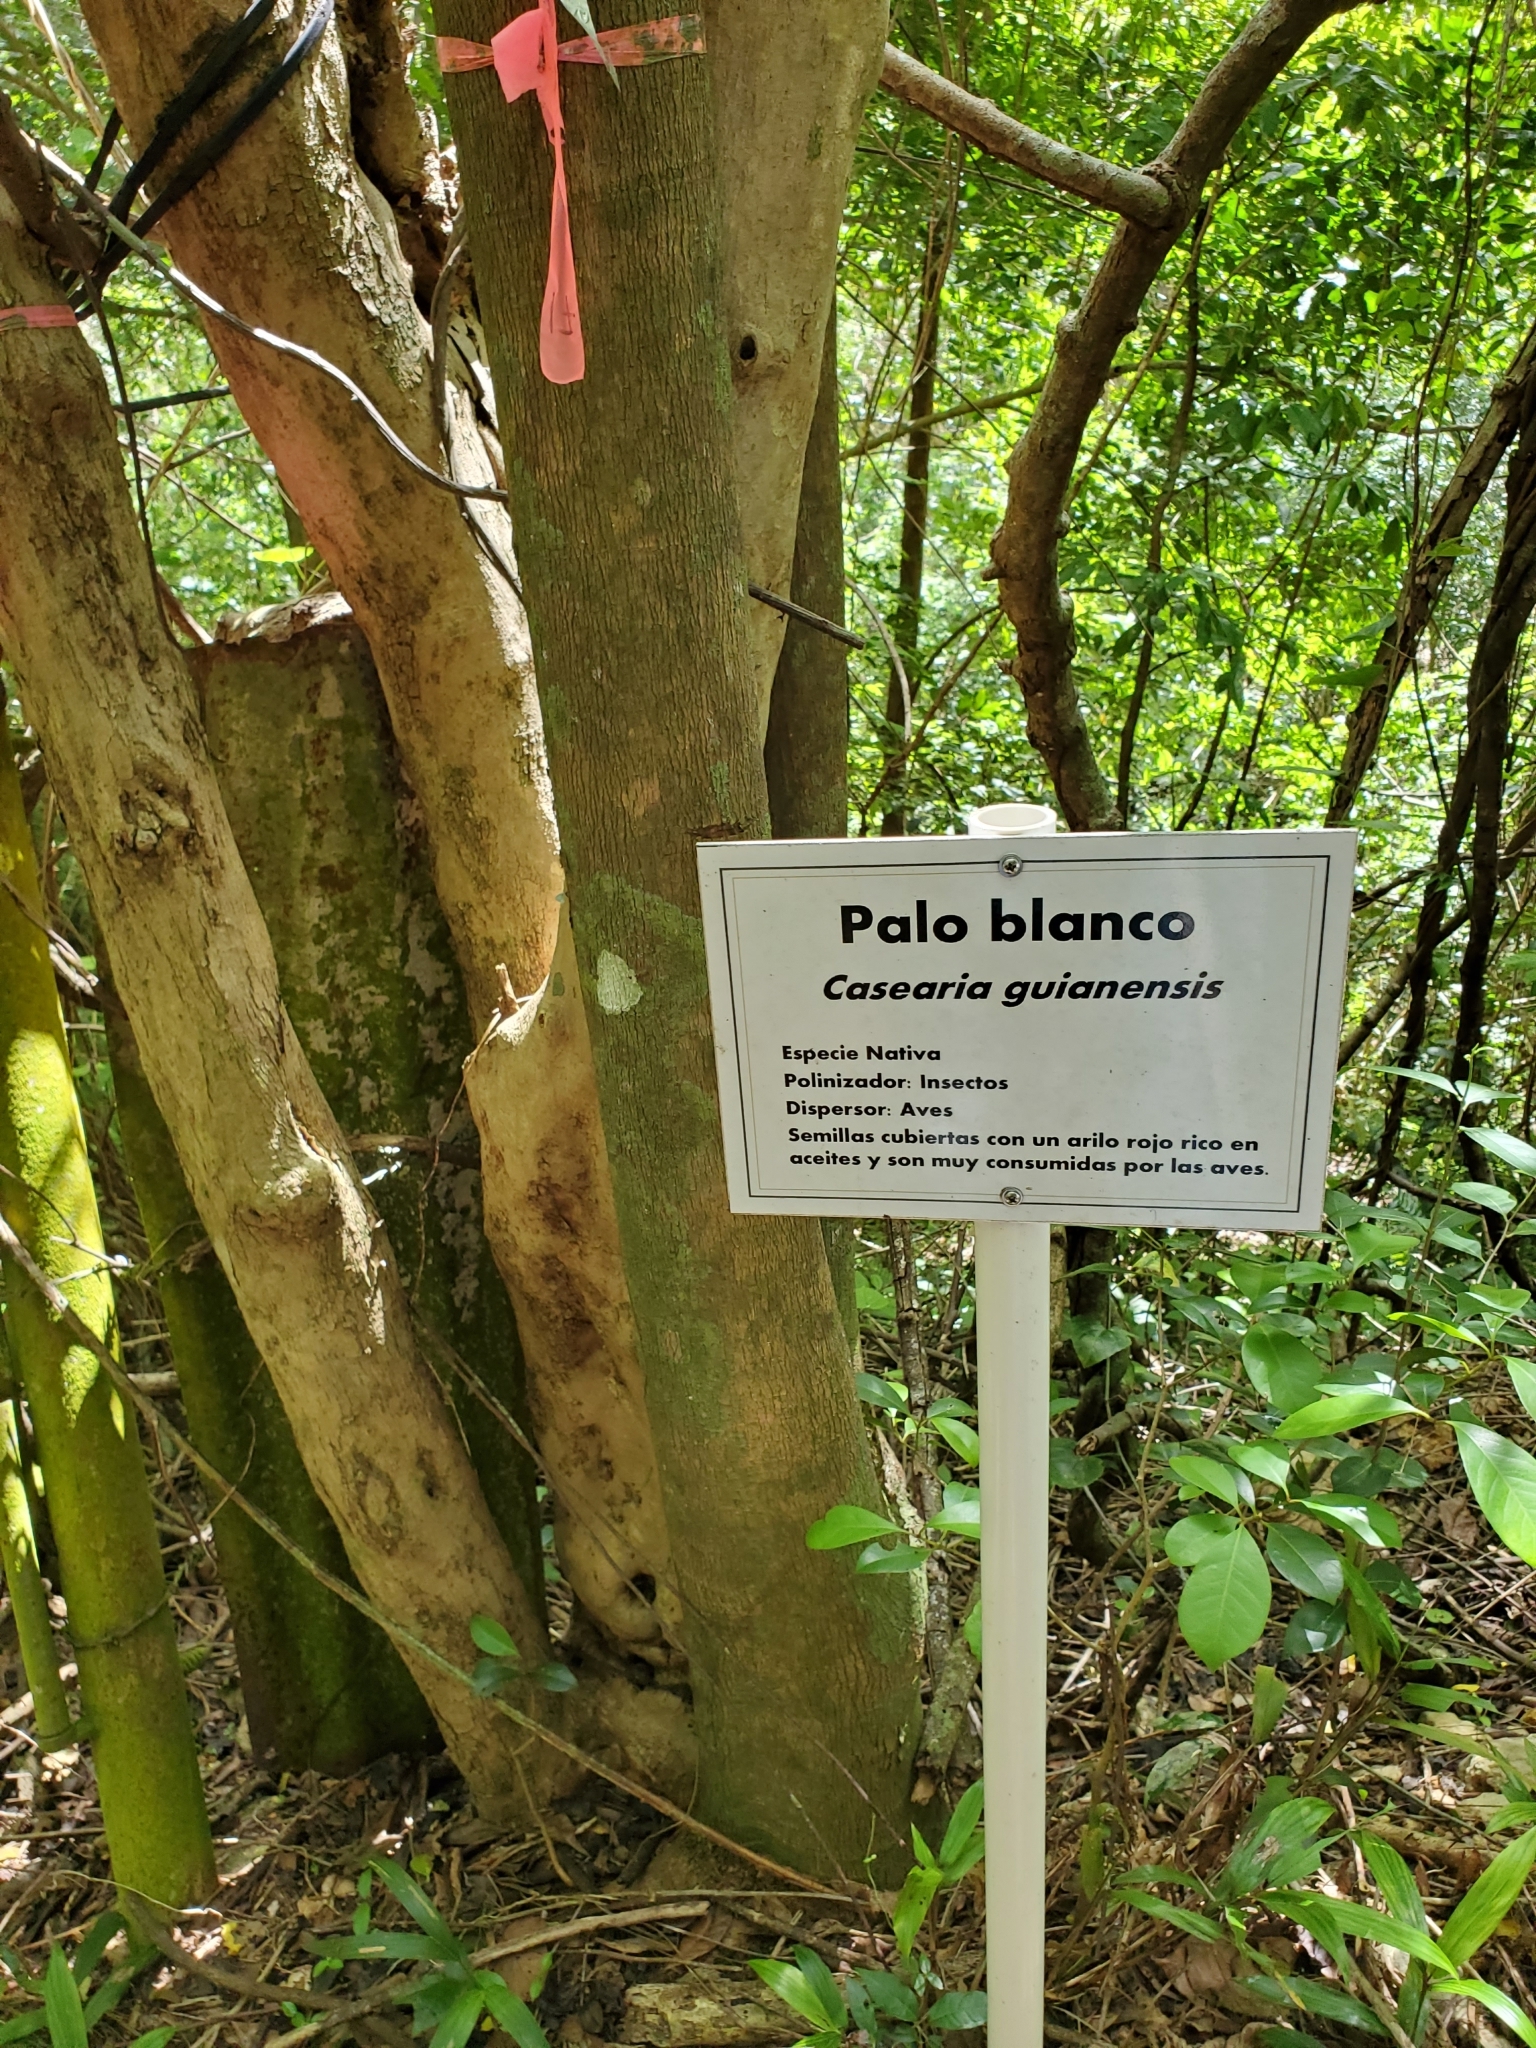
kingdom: Plantae
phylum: Tracheophyta
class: Magnoliopsida
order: Malpighiales
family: Salicaceae
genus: Casearia
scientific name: Casearia guianensis
